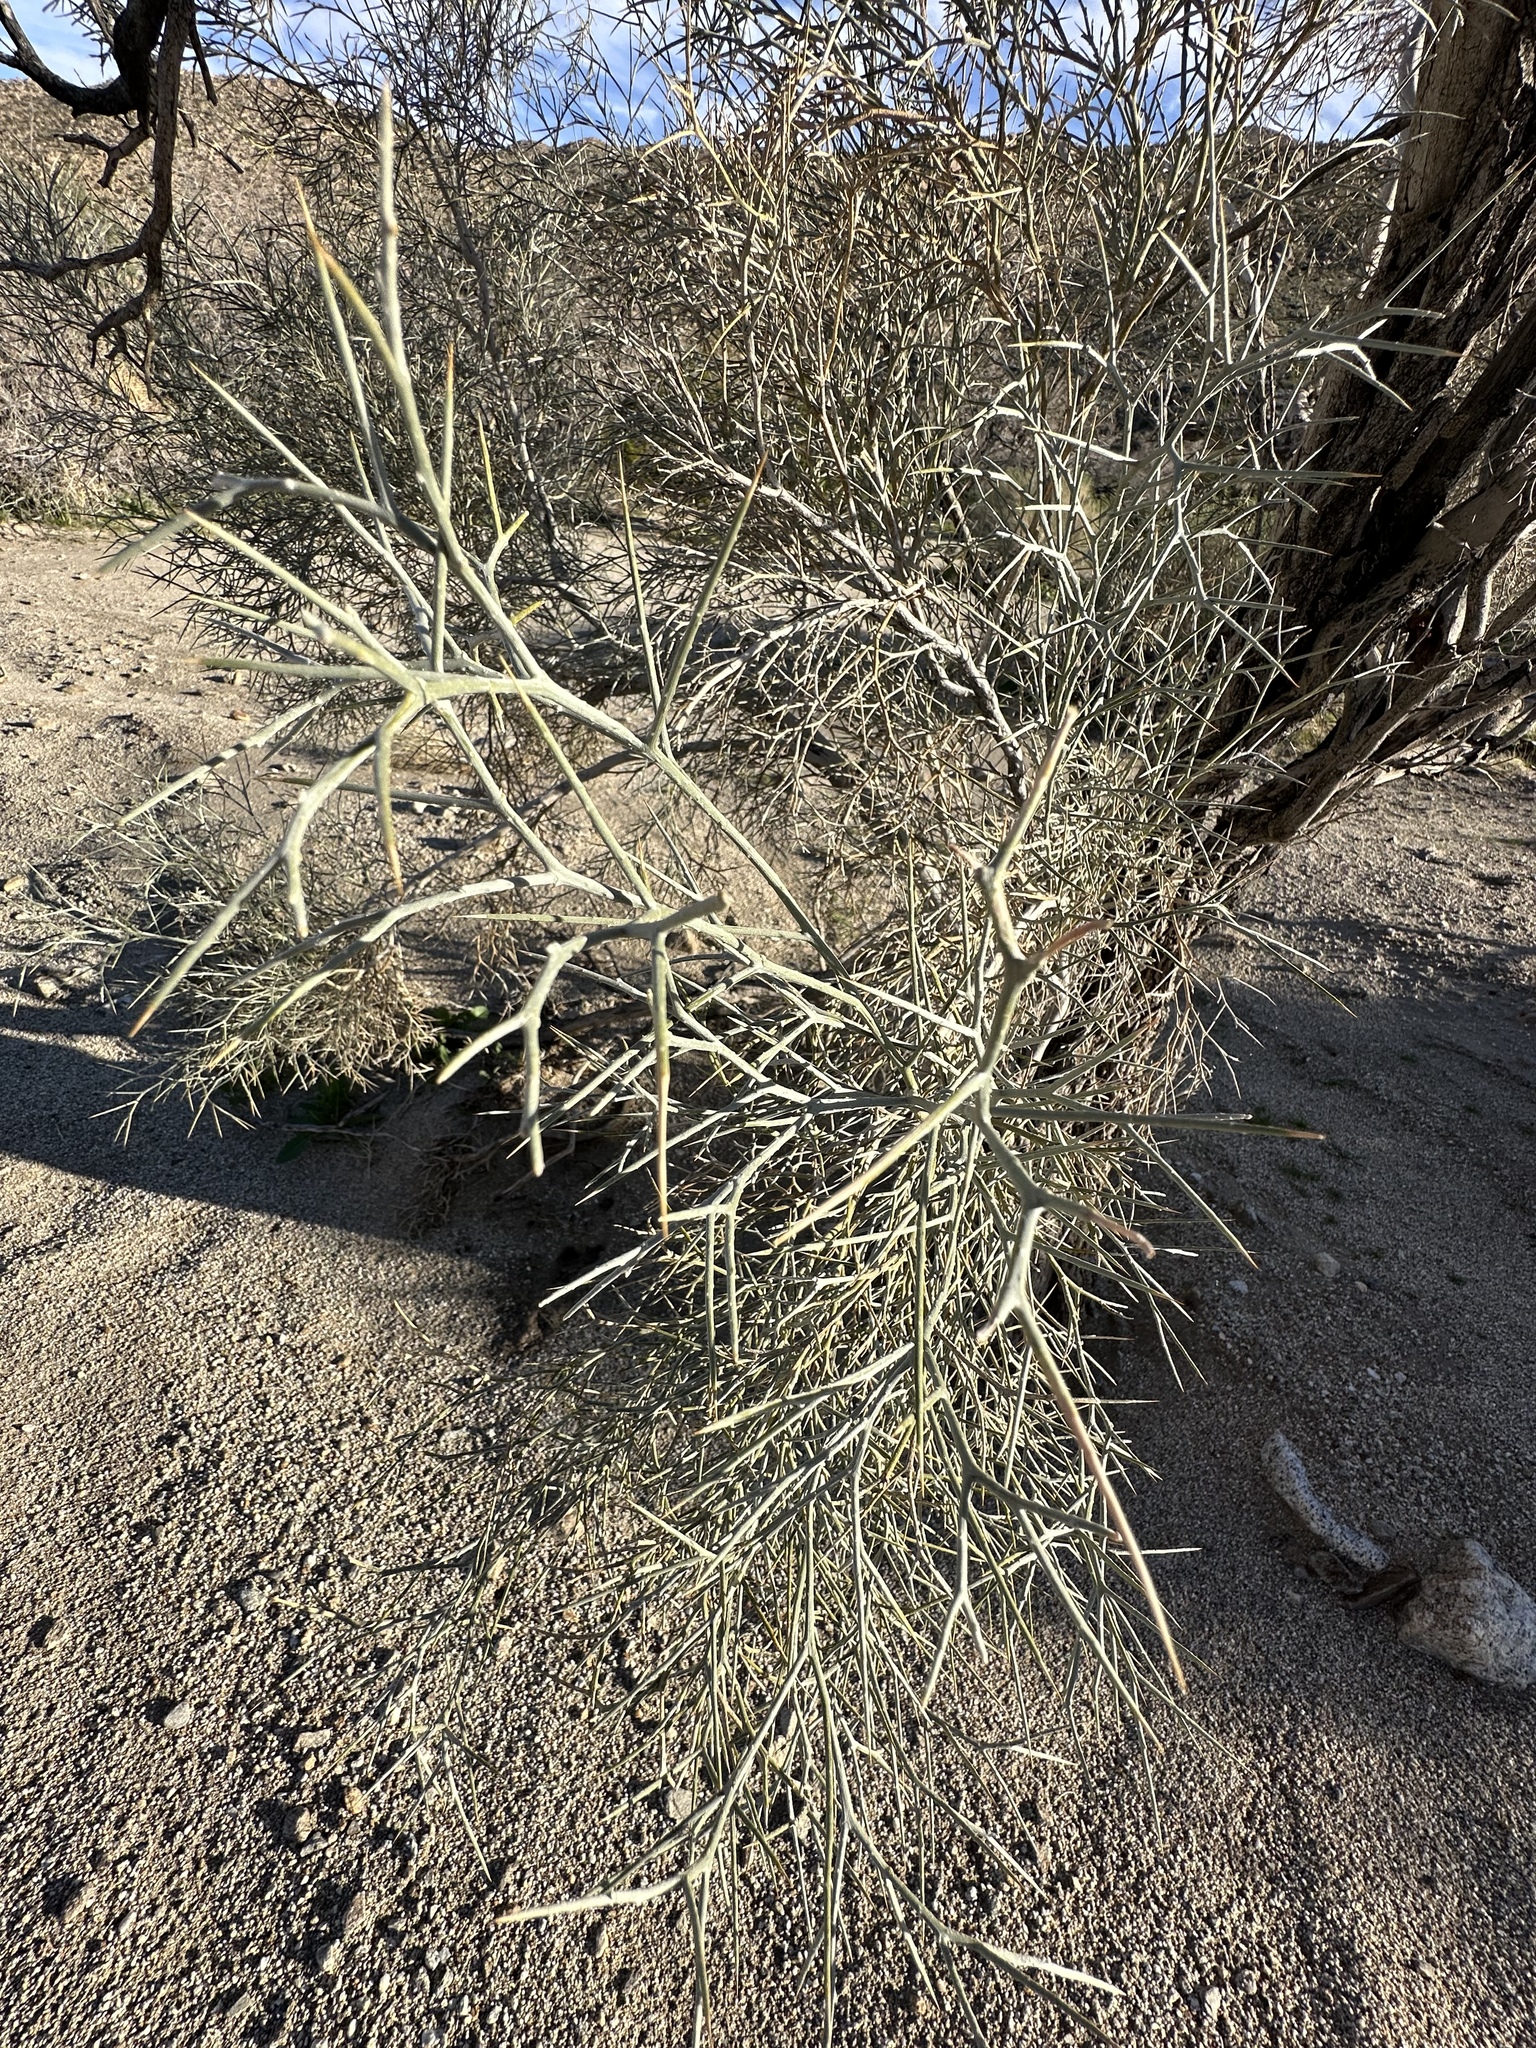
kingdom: Plantae
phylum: Tracheophyta
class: Magnoliopsida
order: Fabales
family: Fabaceae
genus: Psorothamnus
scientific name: Psorothamnus spinosus
